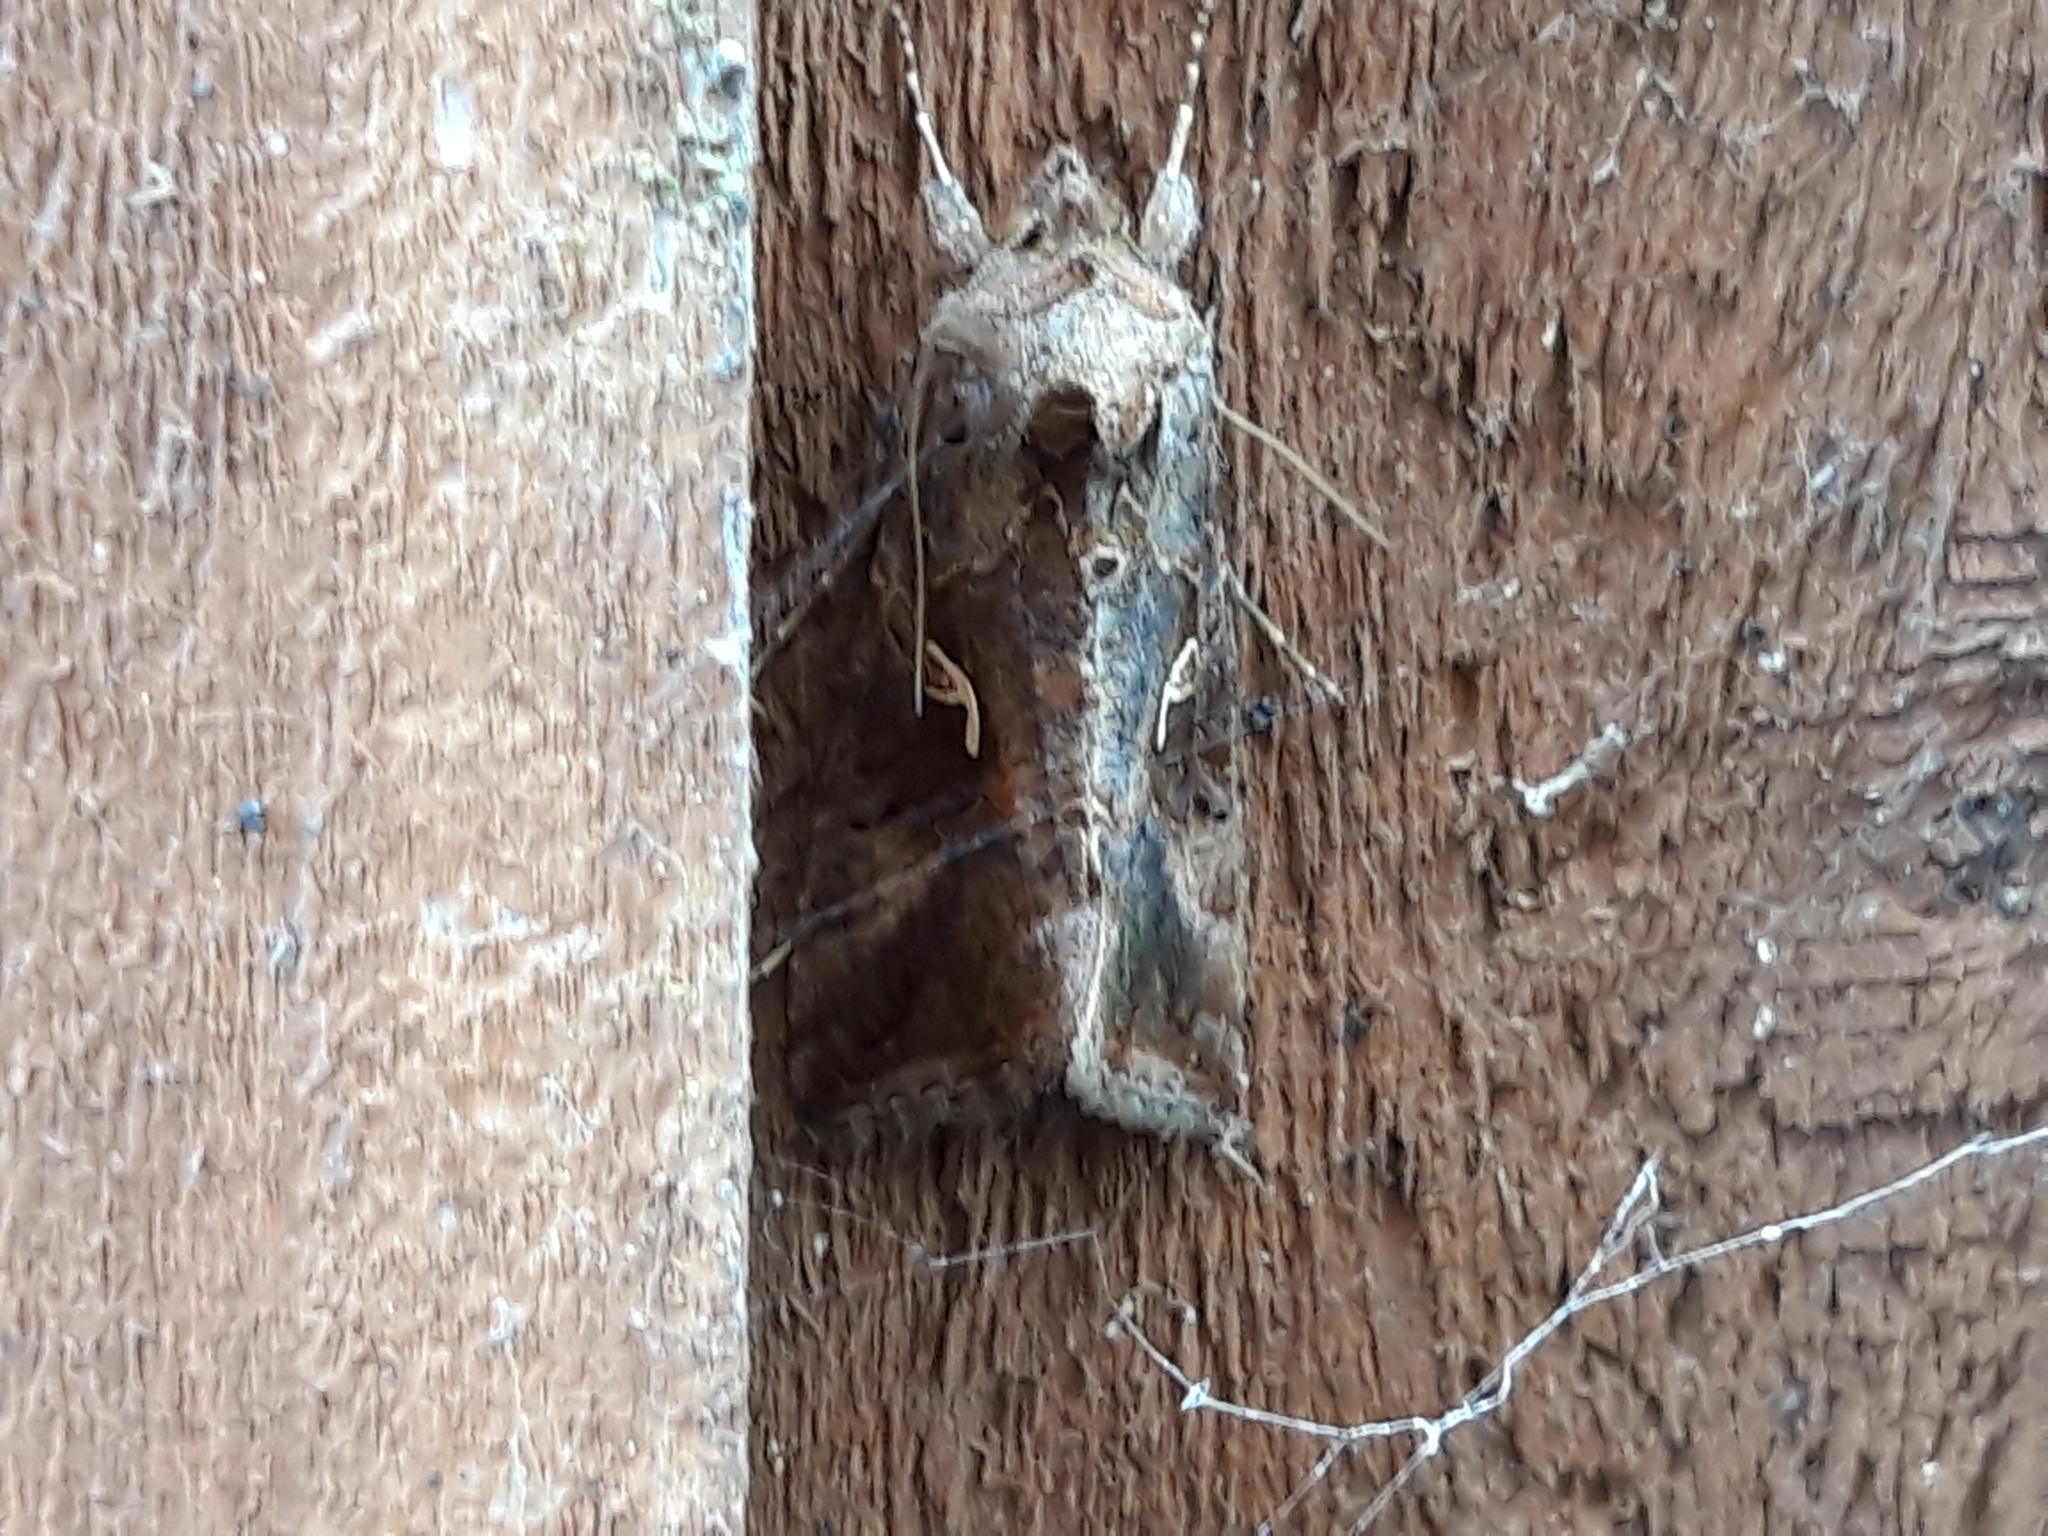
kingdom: Animalia
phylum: Arthropoda
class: Insecta
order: Lepidoptera
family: Noctuidae
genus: Autographa
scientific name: Autographa gamma
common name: Silver y
